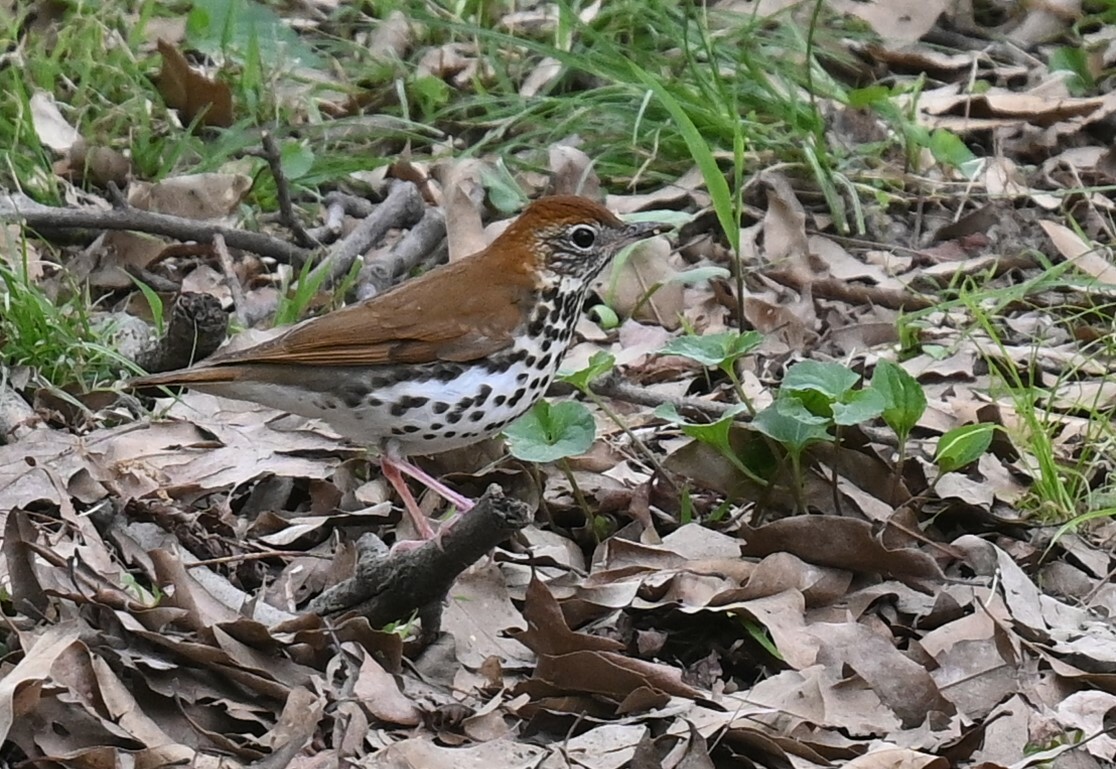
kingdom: Animalia
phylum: Chordata
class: Aves
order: Passeriformes
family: Turdidae
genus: Hylocichla
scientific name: Hylocichla mustelina
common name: Wood thrush
